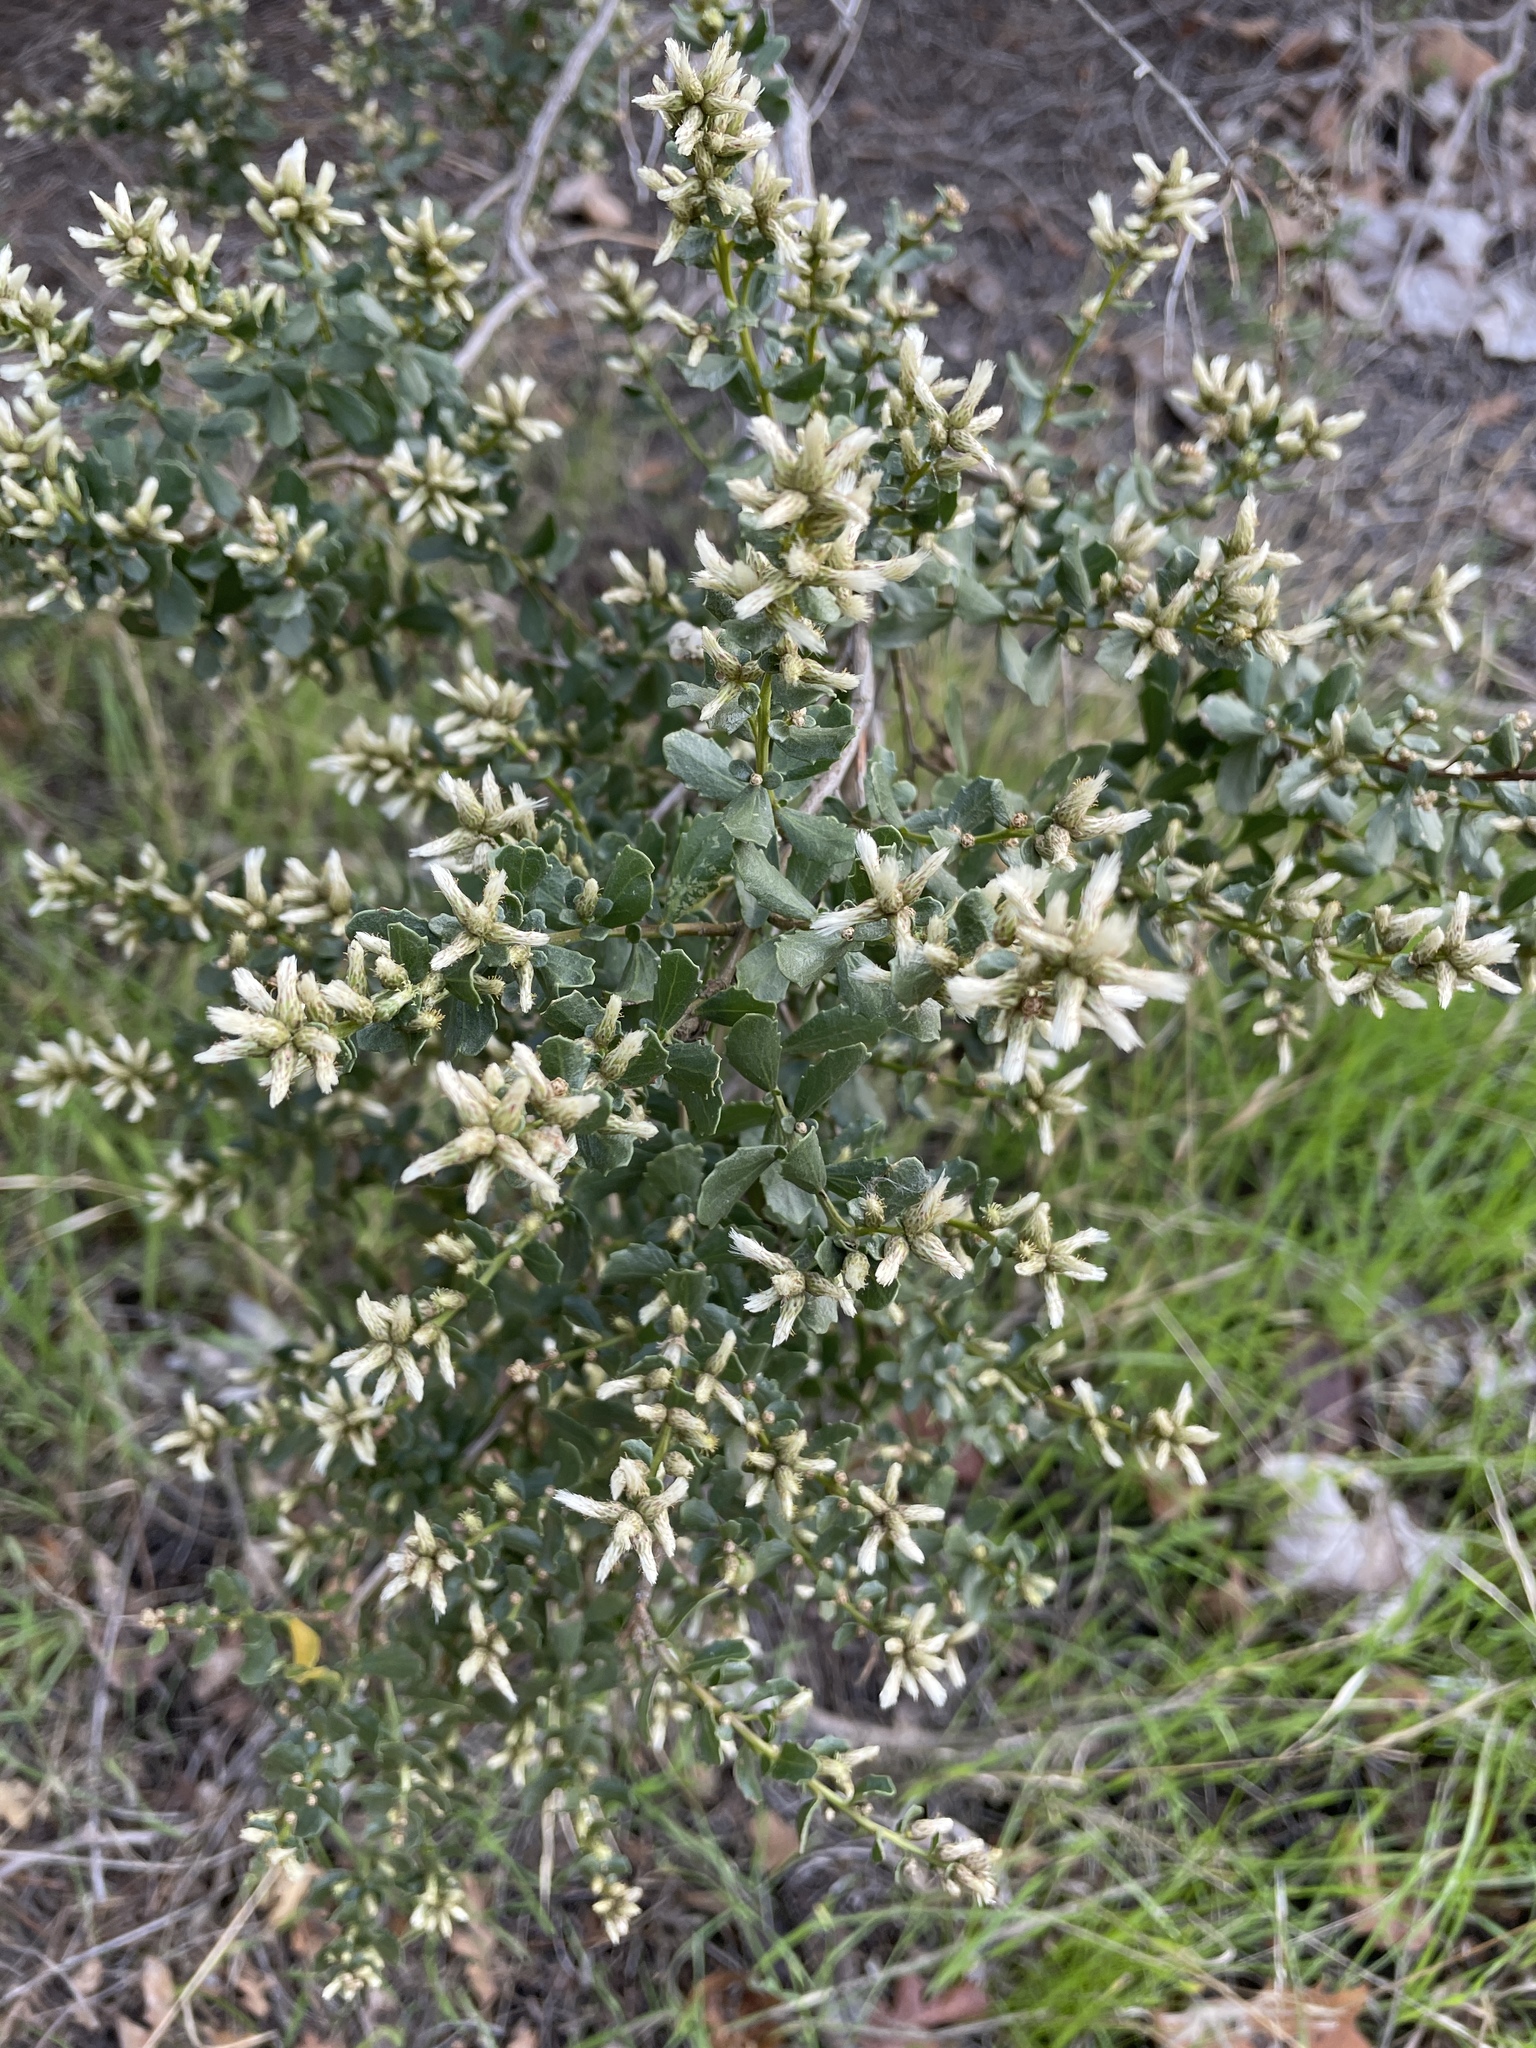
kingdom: Plantae
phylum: Tracheophyta
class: Magnoliopsida
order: Asterales
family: Asteraceae
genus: Baccharis
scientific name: Baccharis pilularis
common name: Coyotebrush
